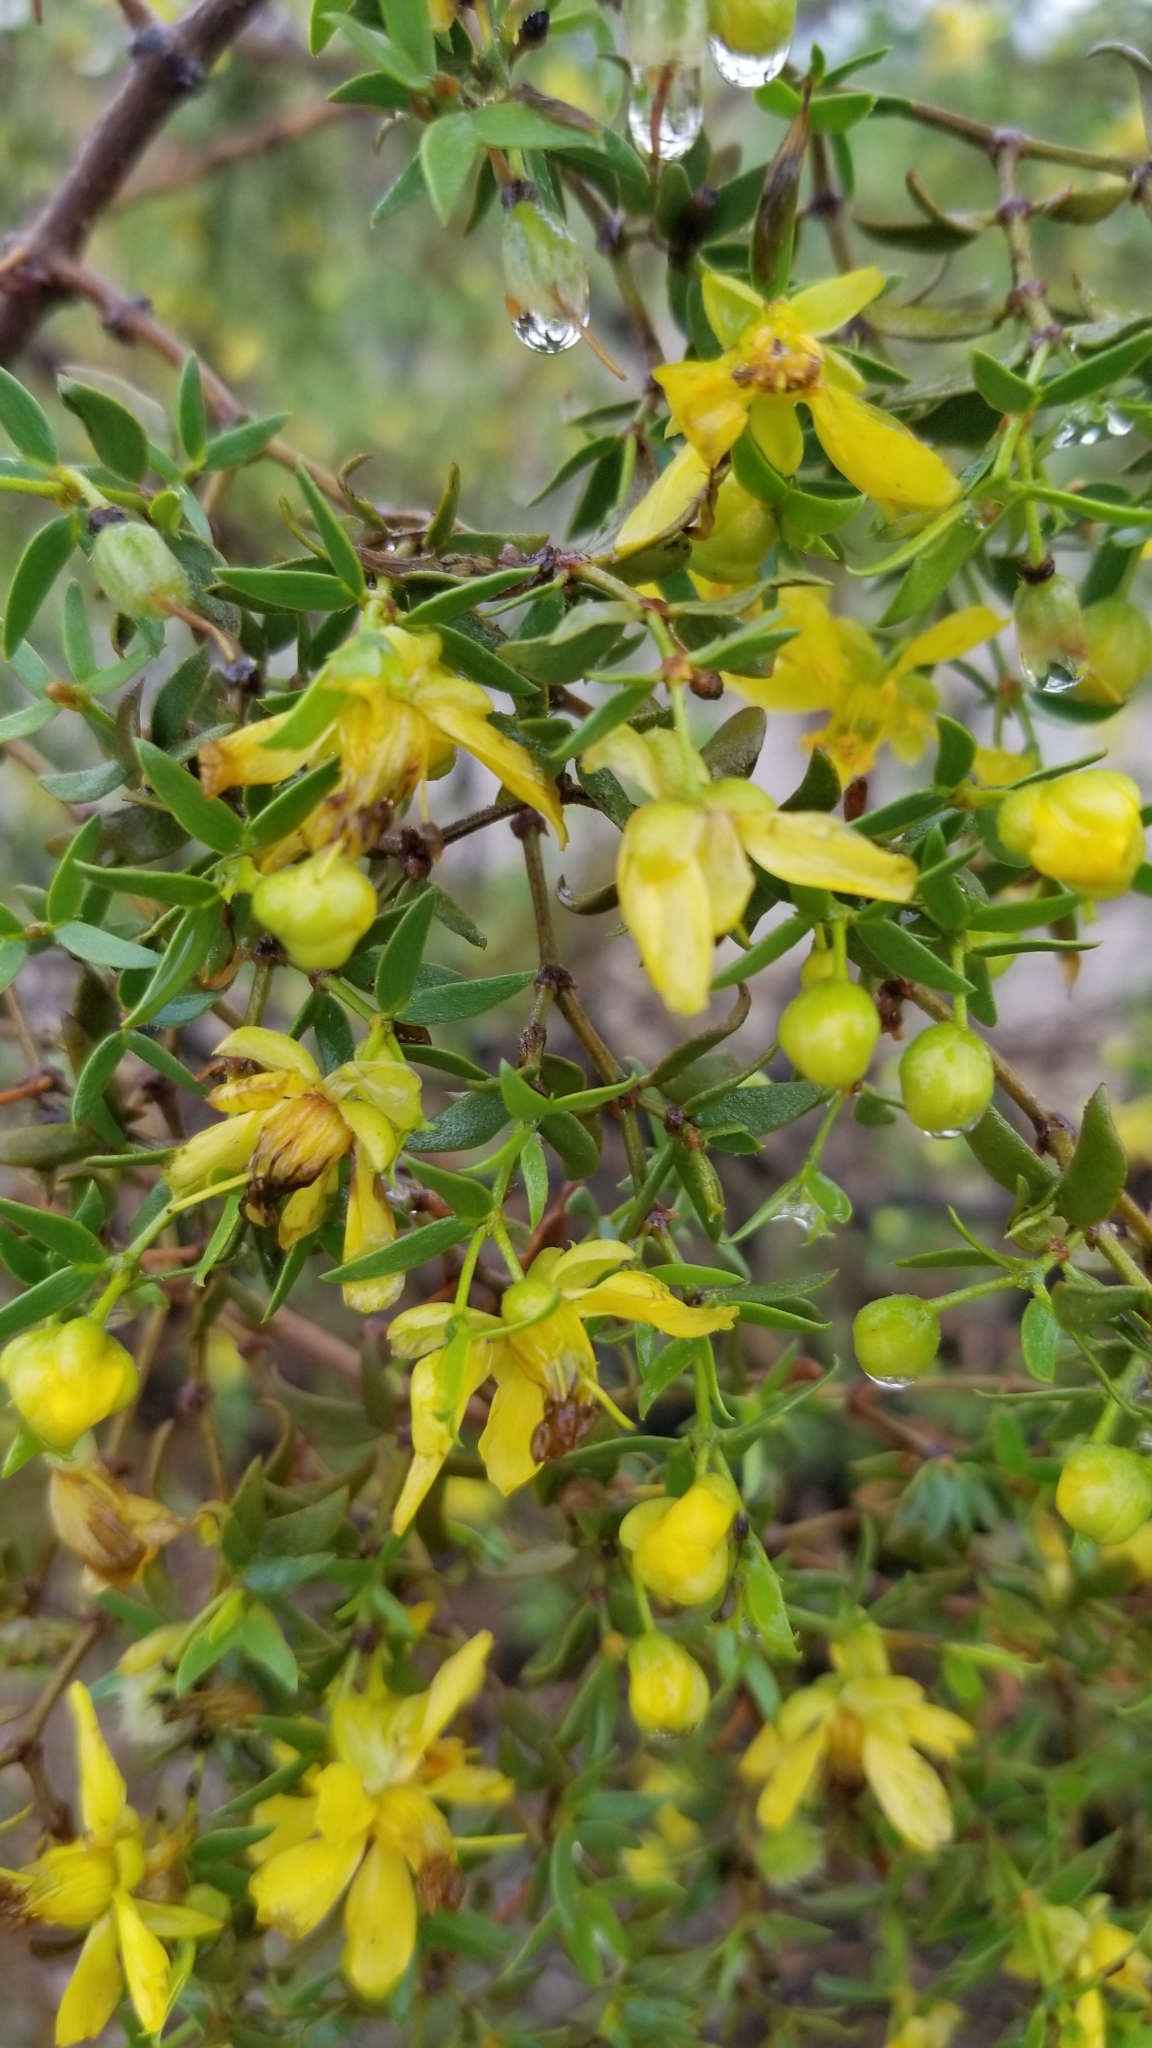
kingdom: Plantae
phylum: Tracheophyta
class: Magnoliopsida
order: Zygophyllales
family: Zygophyllaceae
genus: Larrea
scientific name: Larrea tridentata
